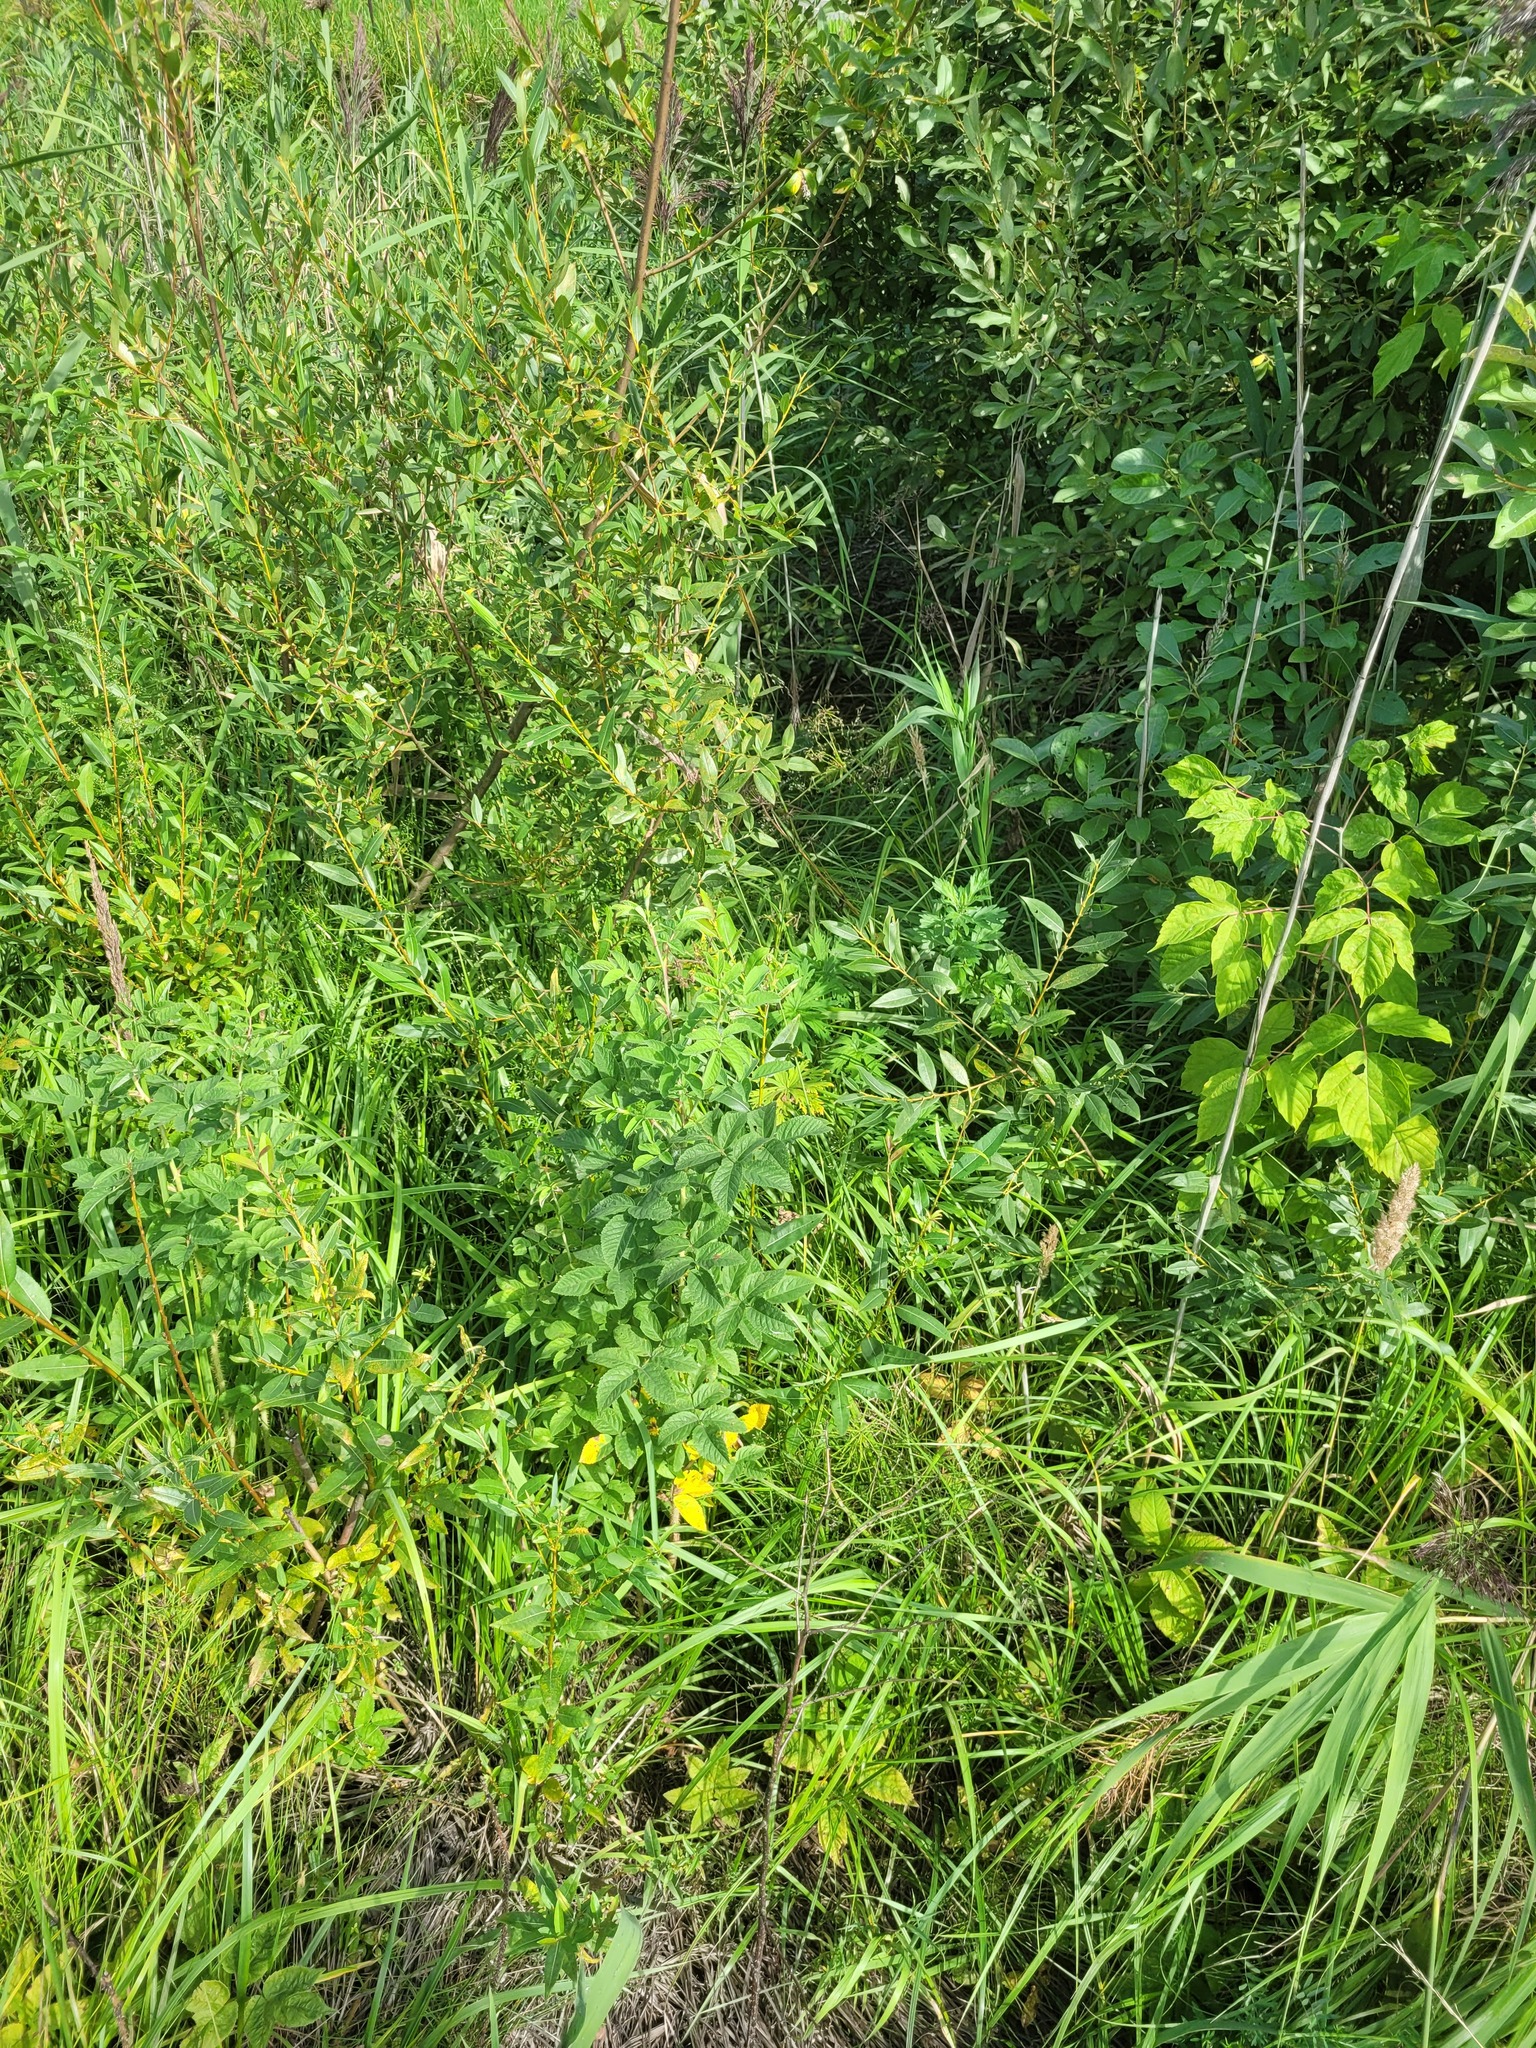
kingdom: Plantae
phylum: Tracheophyta
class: Magnoliopsida
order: Rosales
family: Rosaceae
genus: Rosa
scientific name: Rosa majalis
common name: Cinnamon rose
